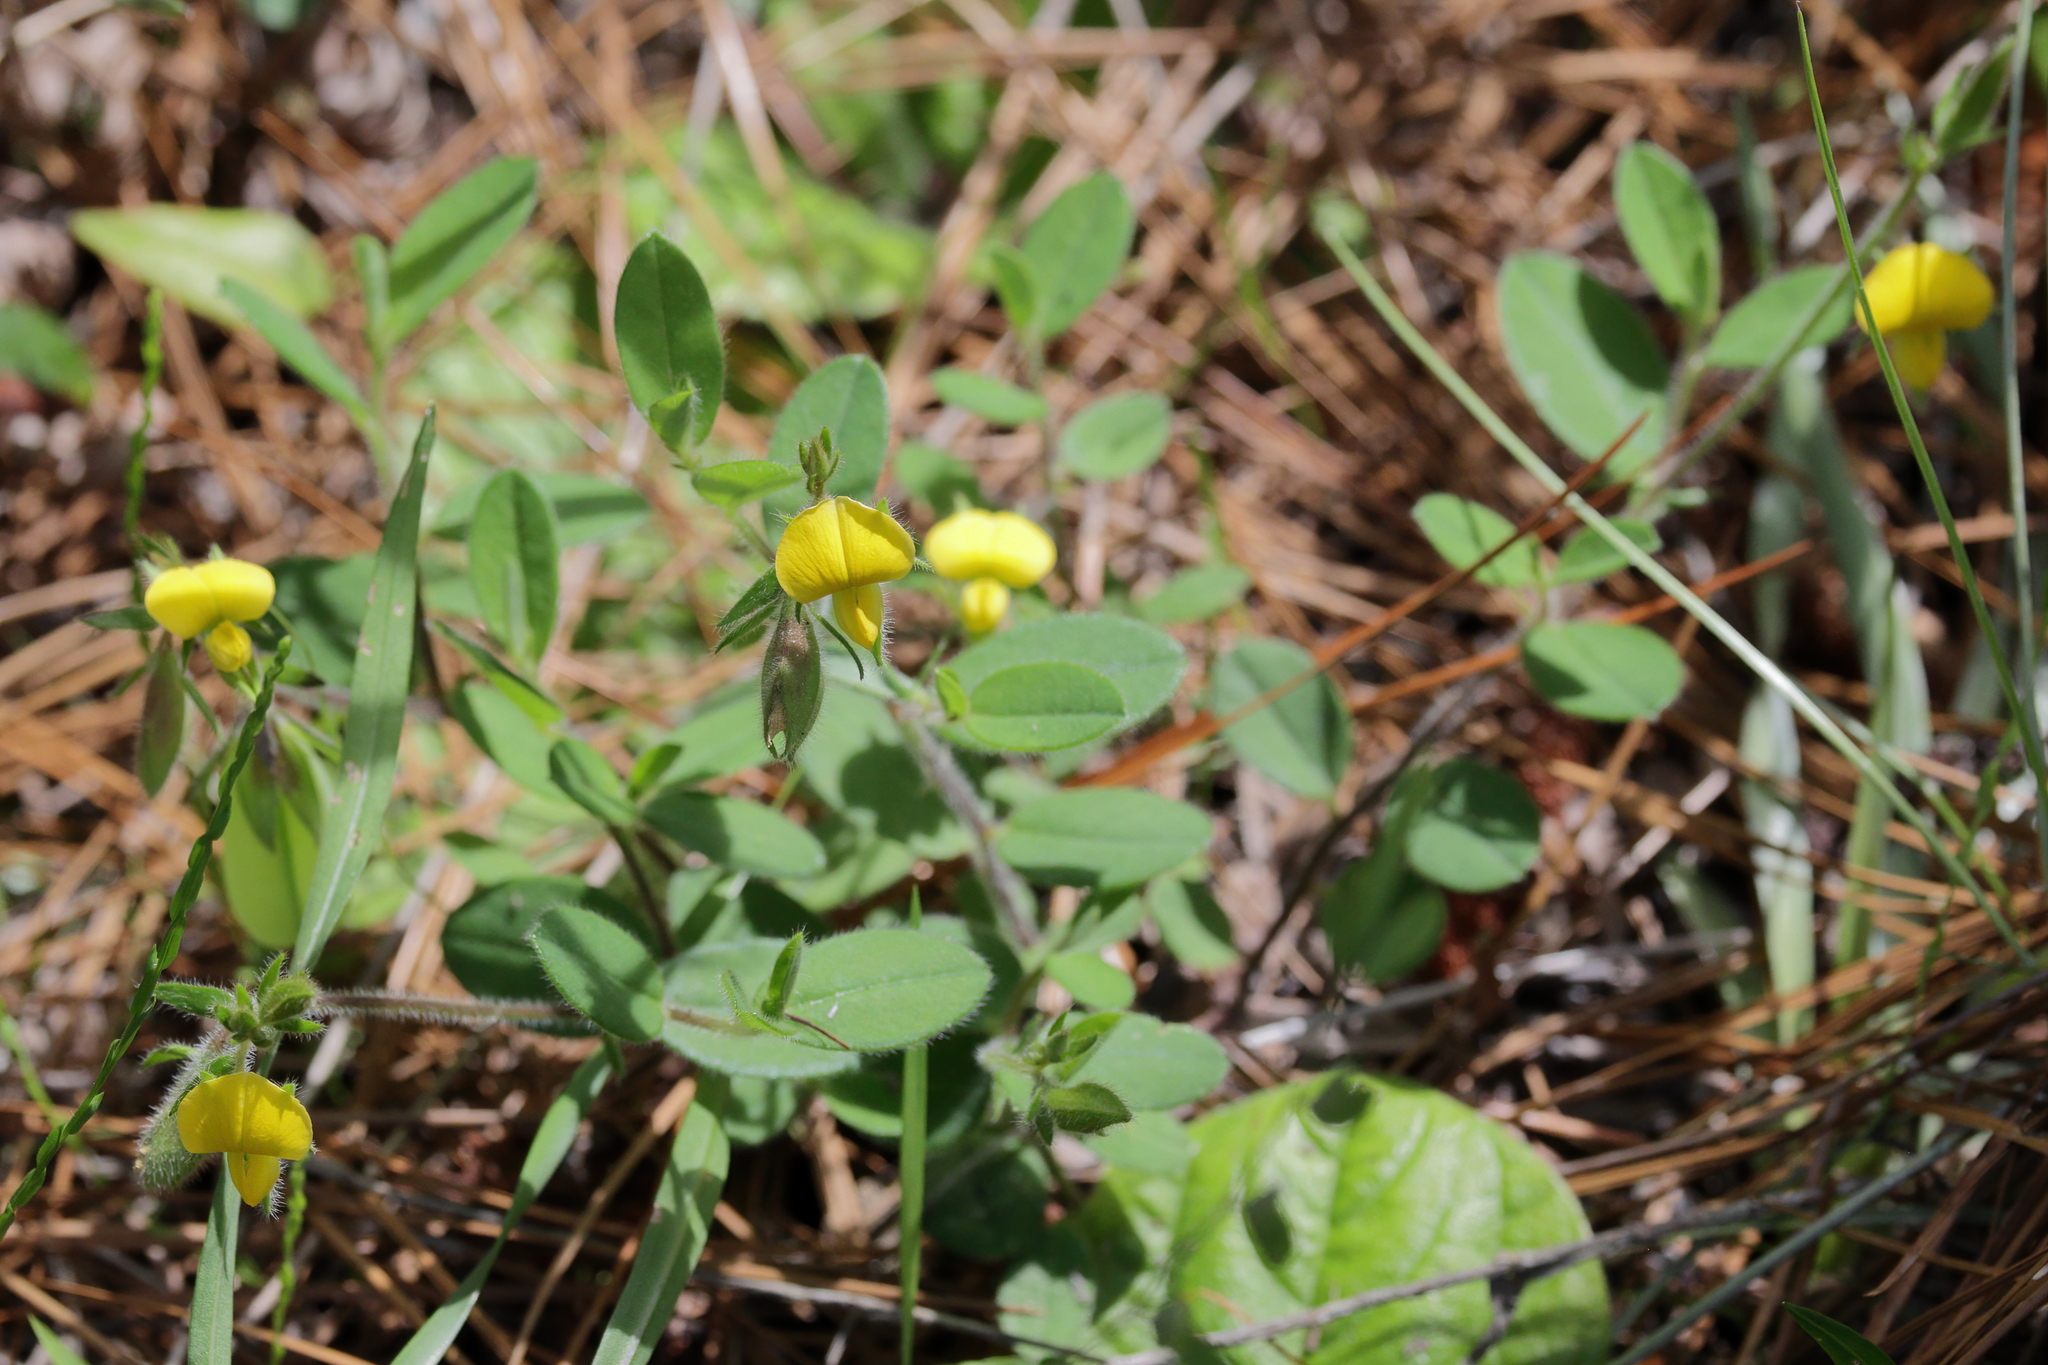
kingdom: Plantae
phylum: Tracheophyta
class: Magnoliopsida
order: Fabales
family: Fabaceae
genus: Crotalaria
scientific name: Crotalaria rotundifolia
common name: Prostrate rattlebox
